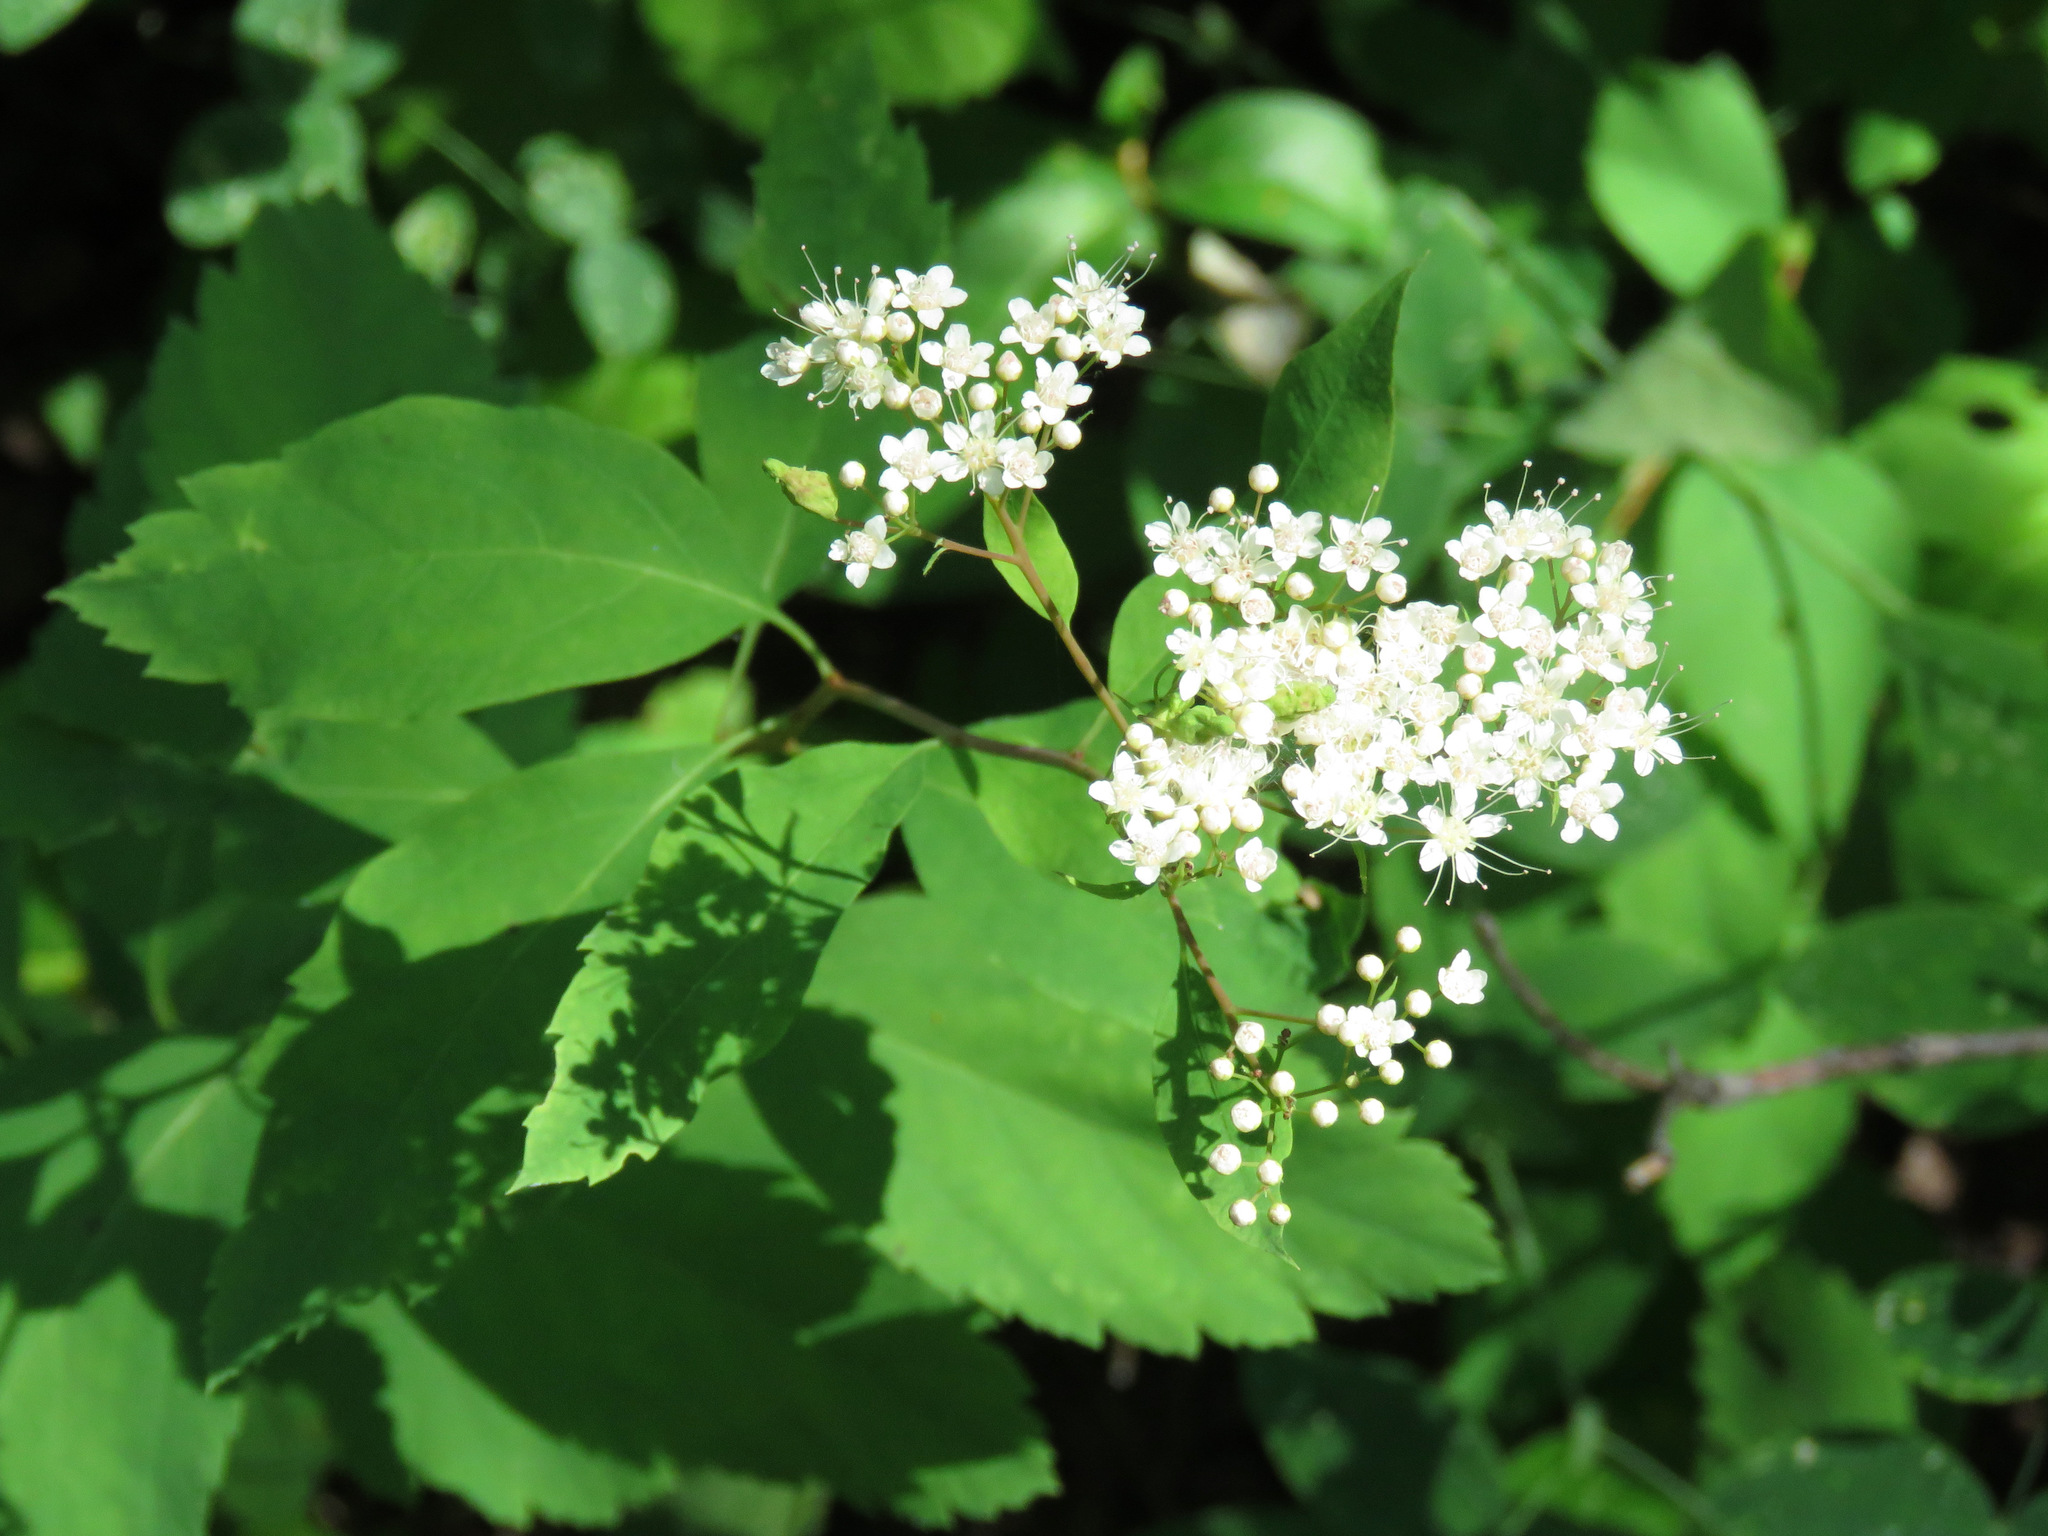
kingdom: Plantae
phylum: Tracheophyta
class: Magnoliopsida
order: Rosales
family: Rosaceae
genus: Spiraea
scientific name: Spiraea lucida
